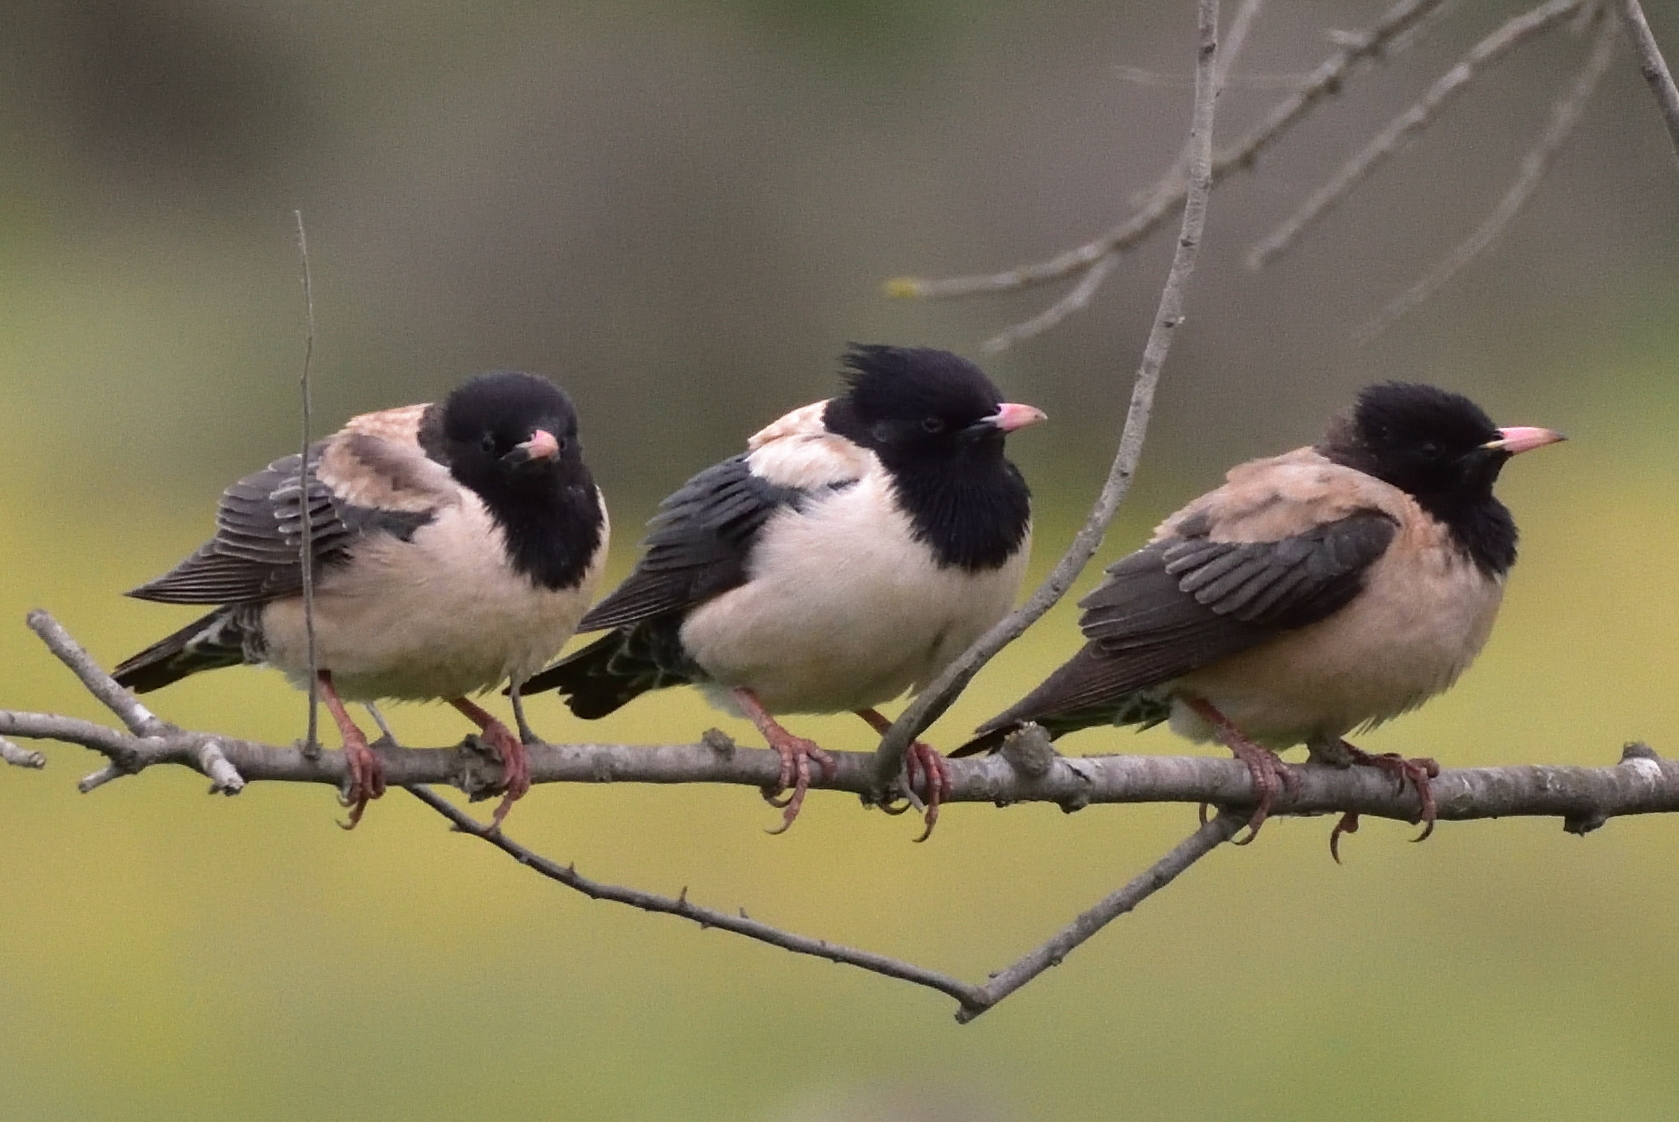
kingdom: Animalia
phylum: Chordata
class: Aves
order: Passeriformes
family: Sturnidae
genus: Pastor
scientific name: Pastor roseus
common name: Rosy starling
